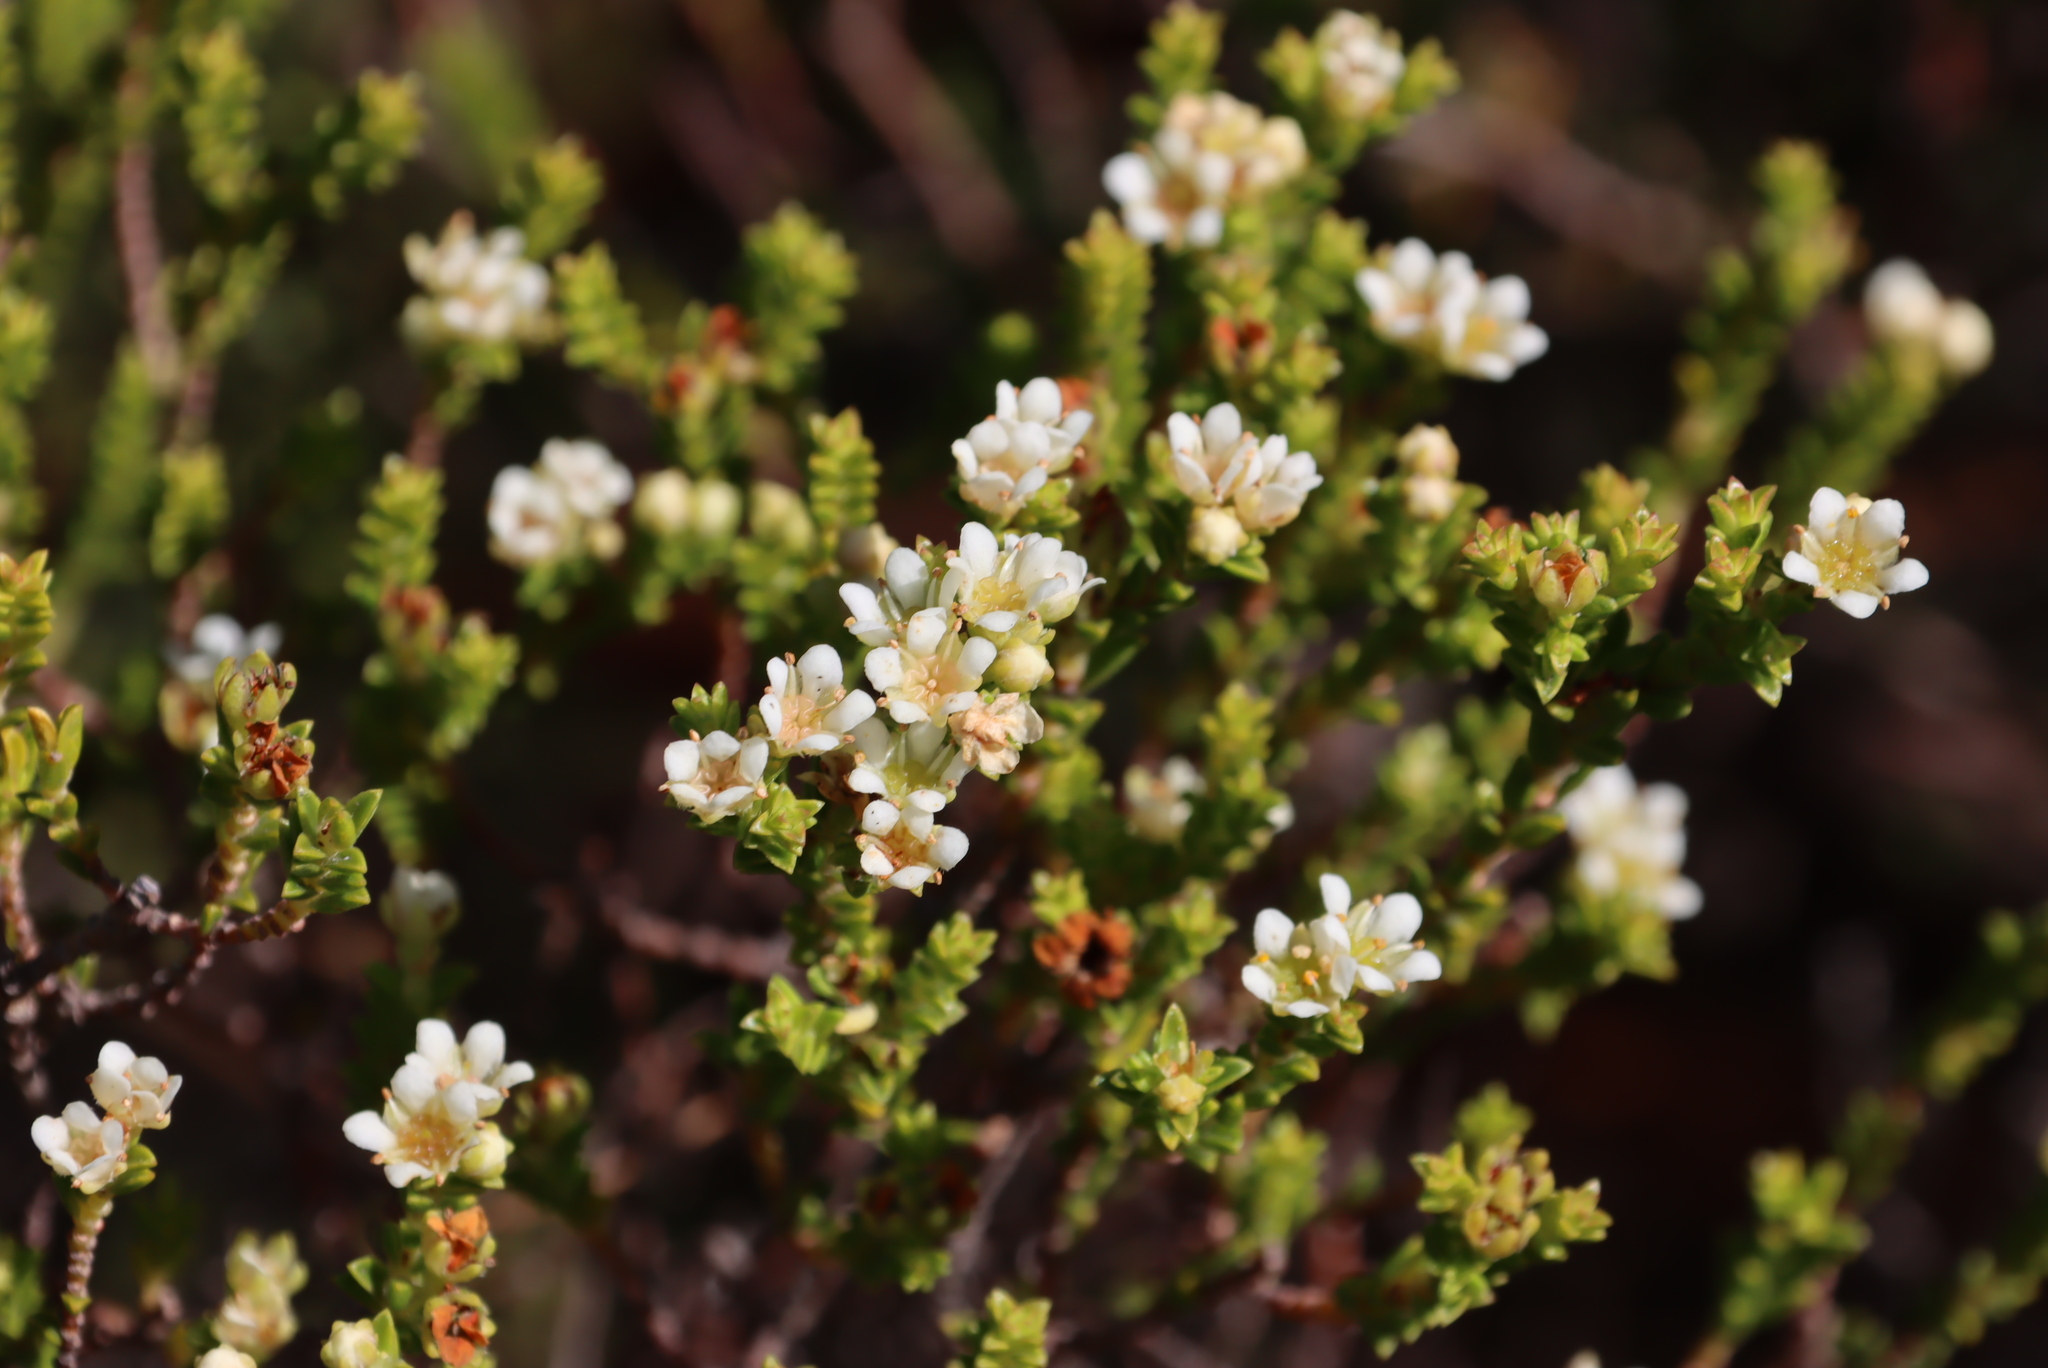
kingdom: Plantae
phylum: Tracheophyta
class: Magnoliopsida
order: Sapindales
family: Rutaceae
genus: Diosma
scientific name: Diosma oppositifolia
